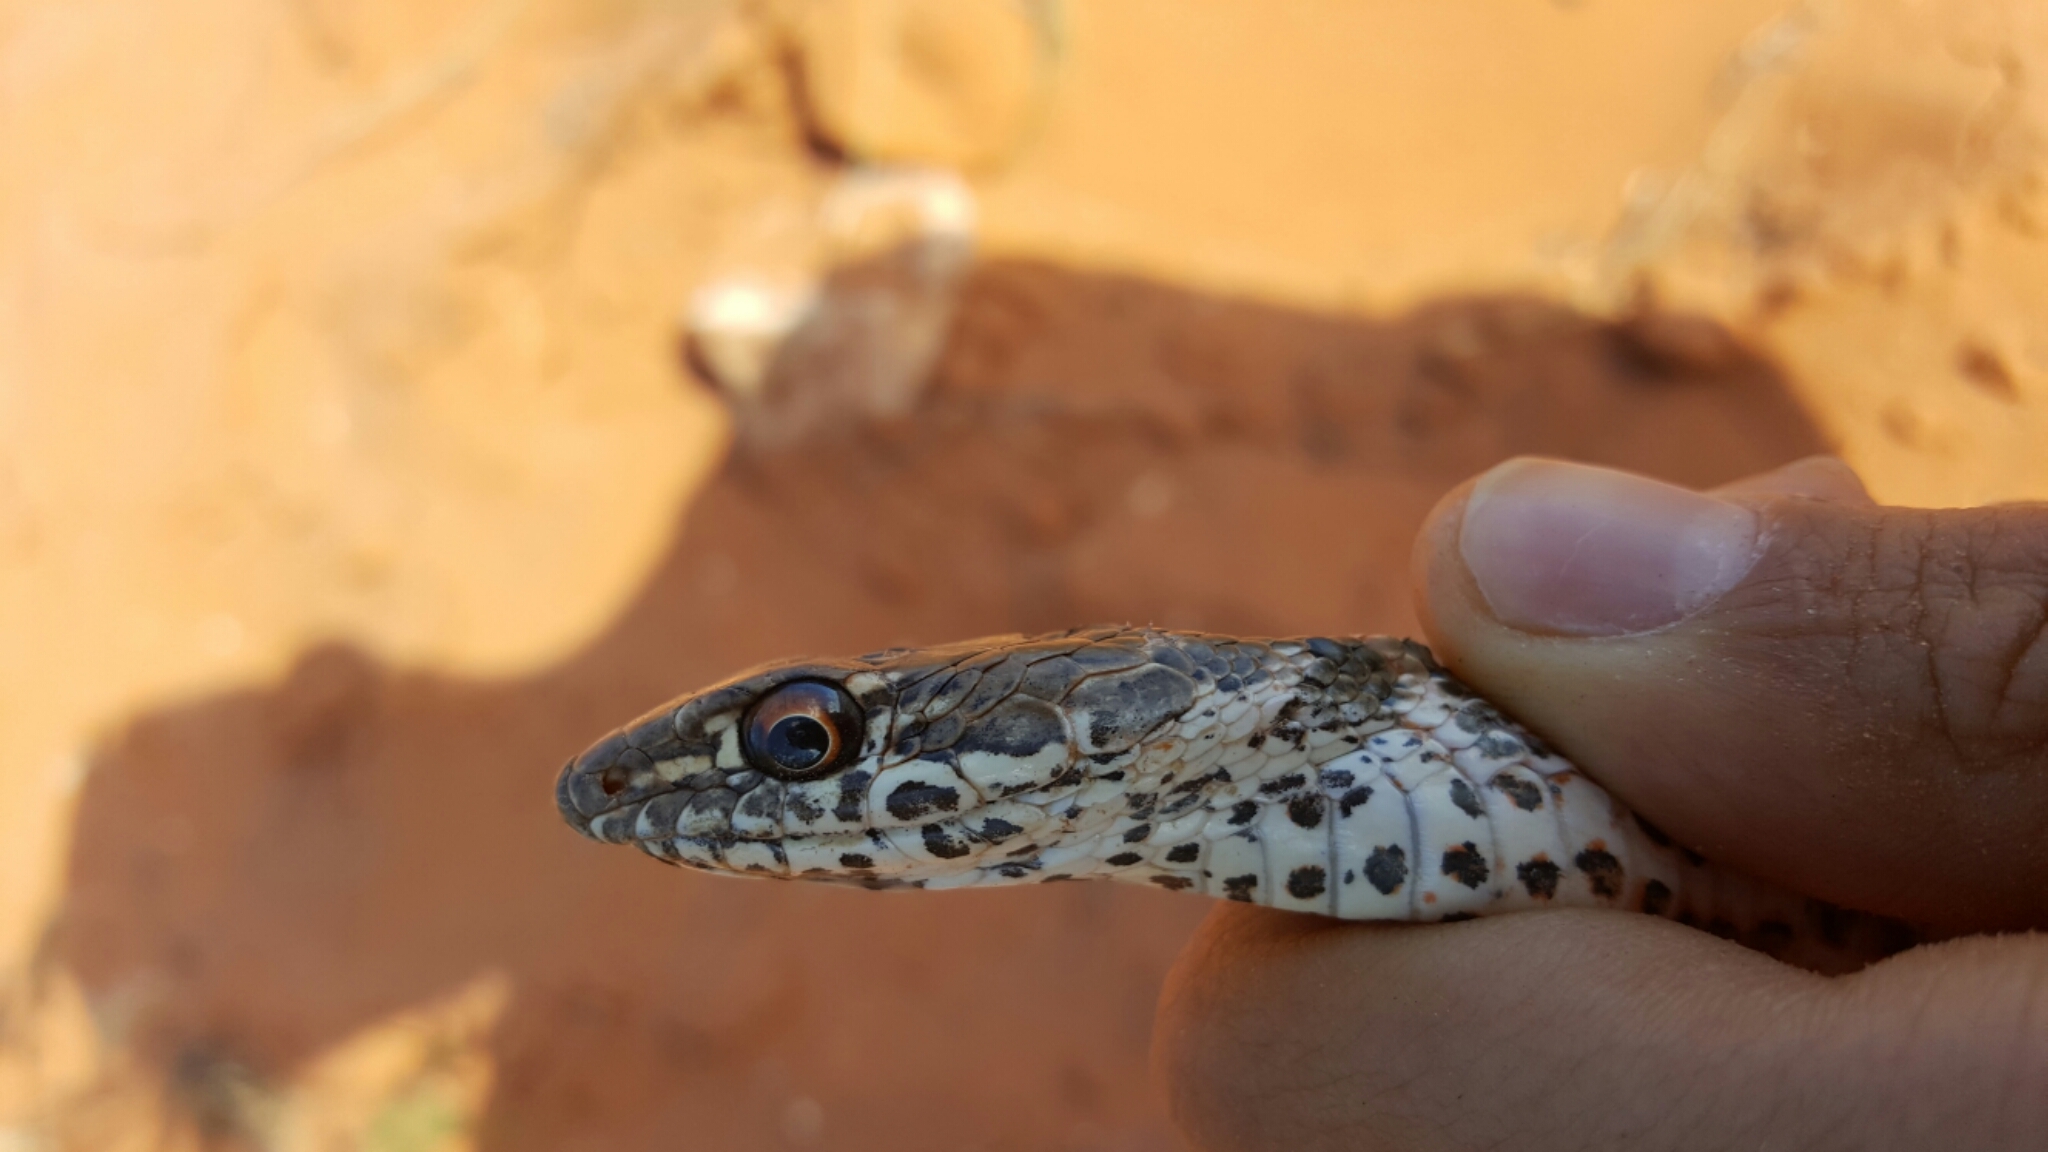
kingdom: Animalia
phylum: Chordata
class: Squamata
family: Colubridae
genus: Masticophis
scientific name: Masticophis flagellum
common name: Coachwhip
